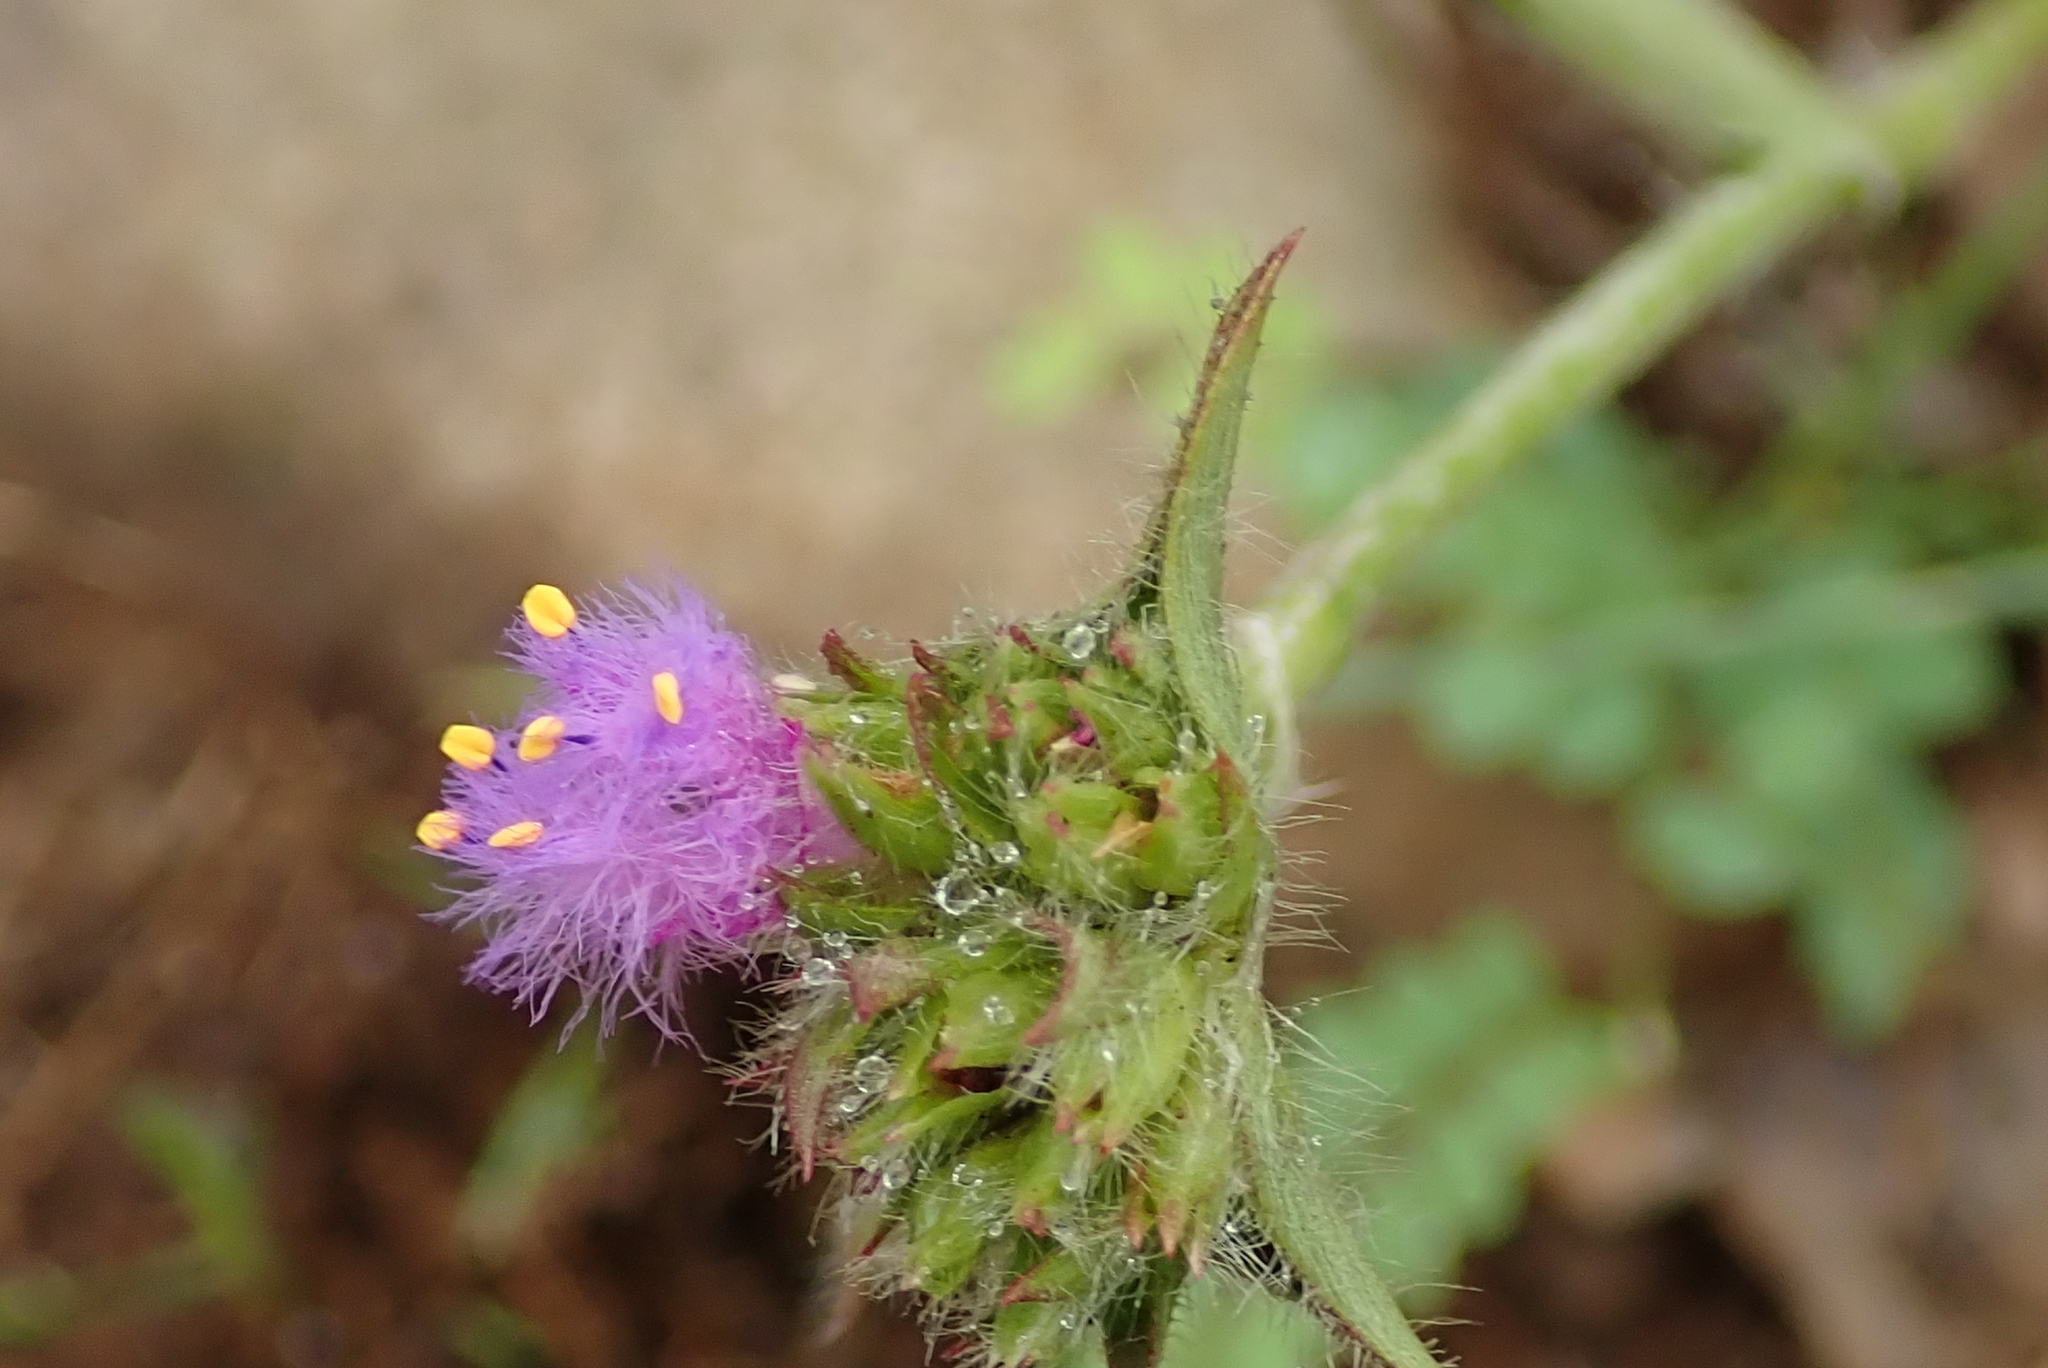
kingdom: Plantae
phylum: Tracheophyta
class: Liliopsida
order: Commelinales
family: Commelinaceae
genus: Cyanotis
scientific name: Cyanotis speciosa
